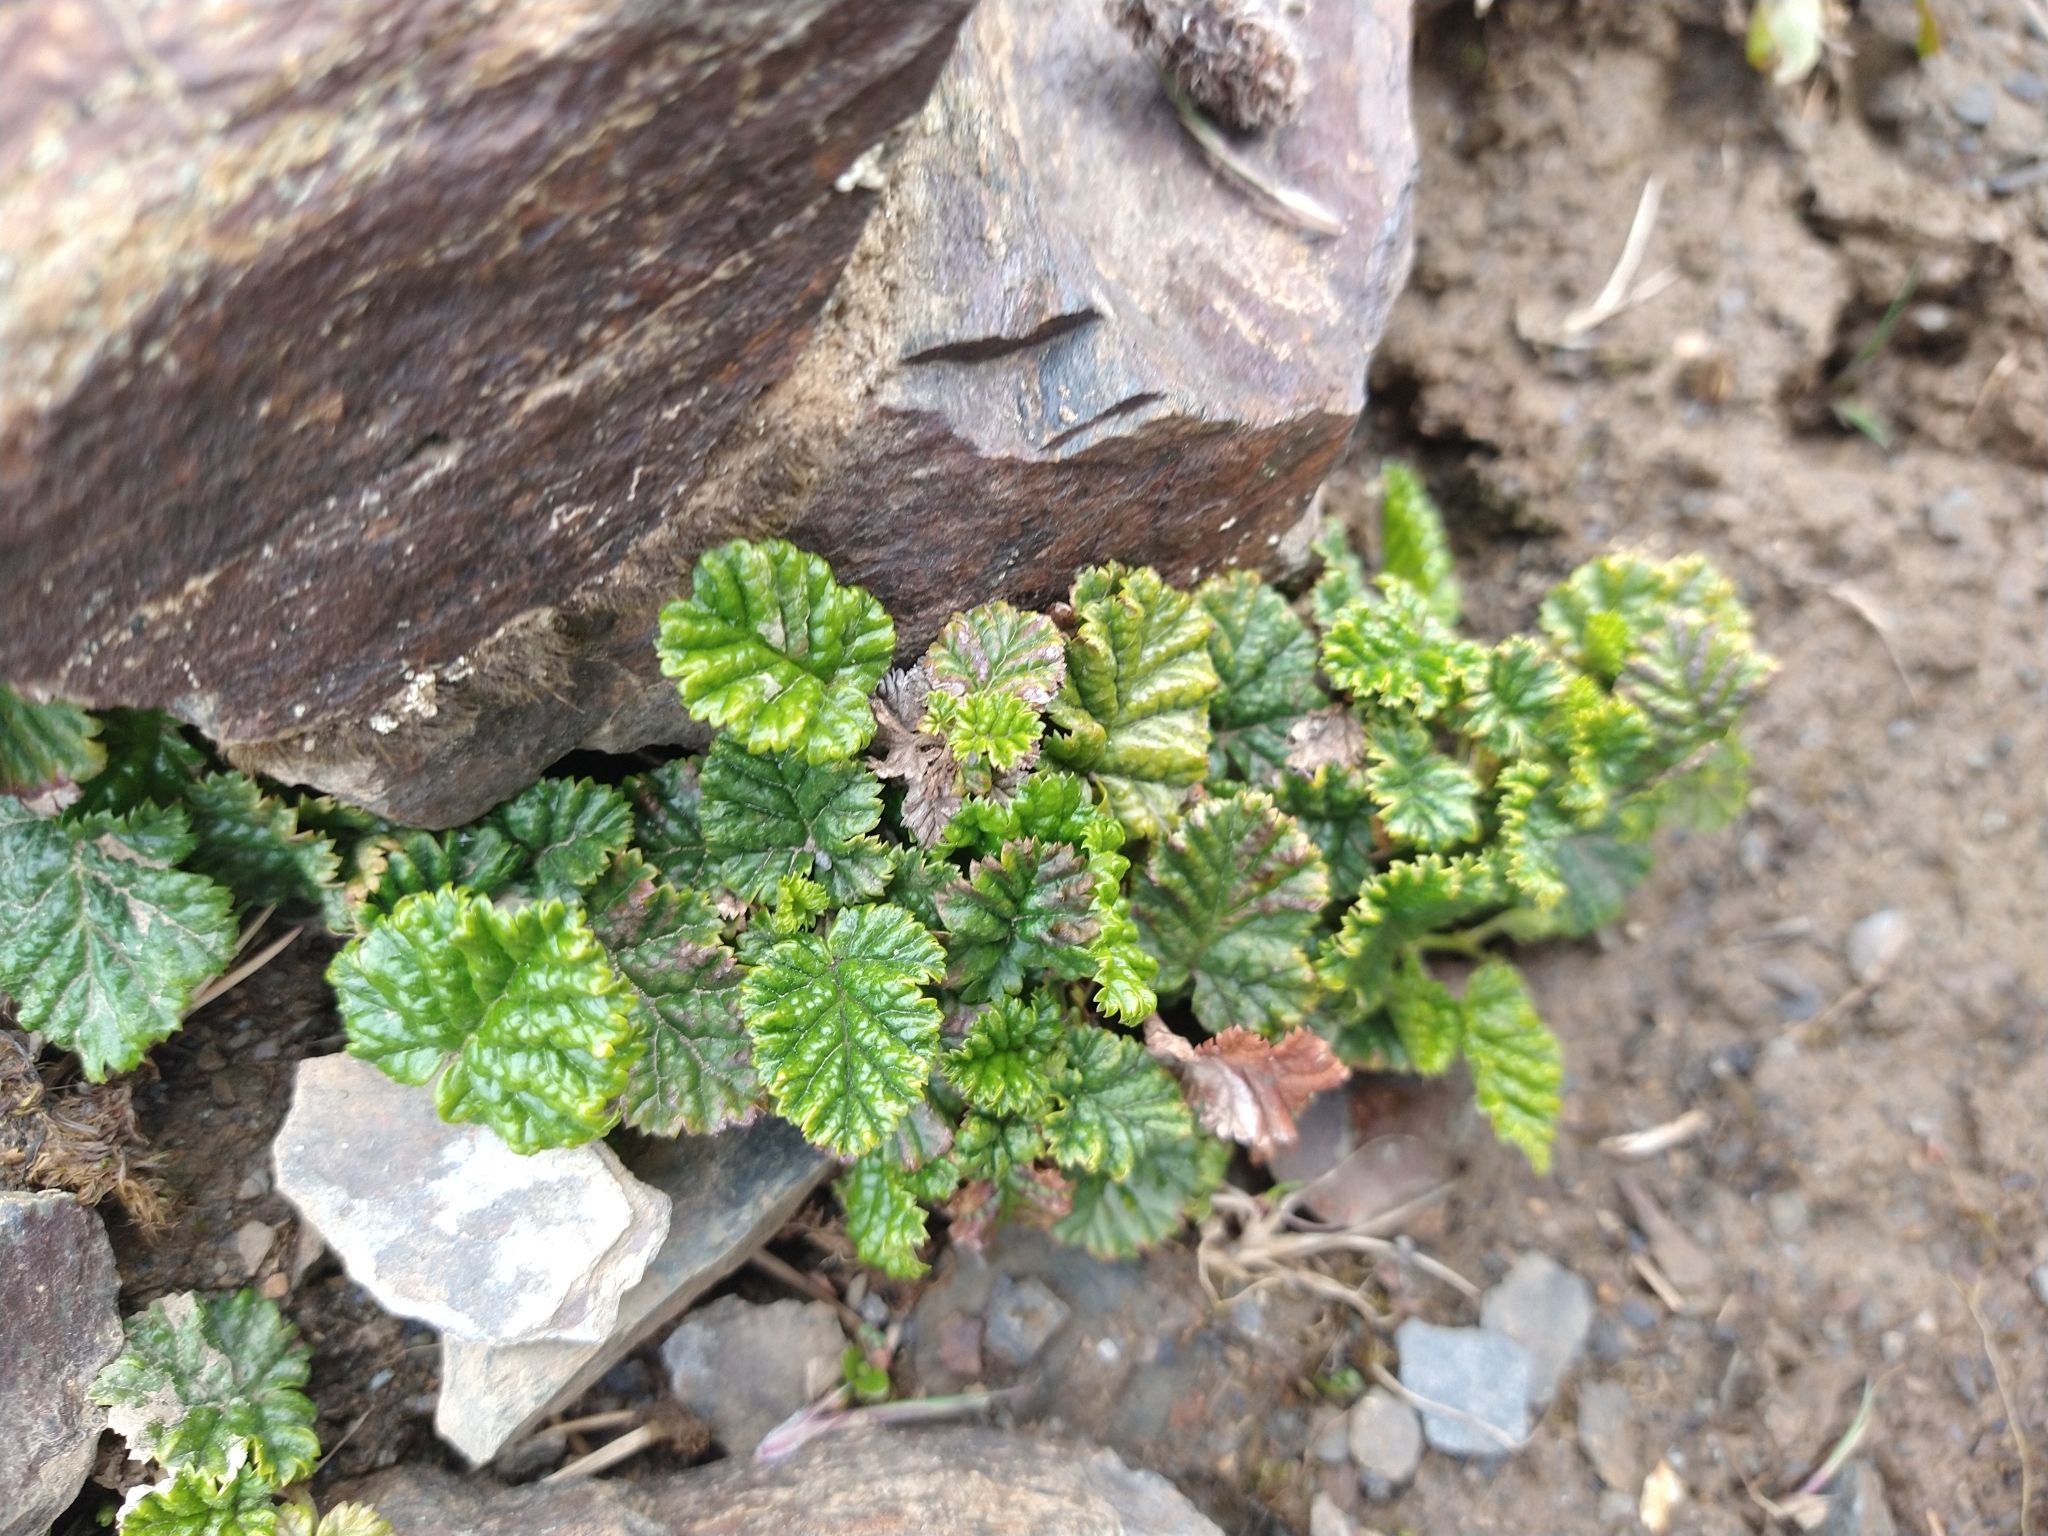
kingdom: Plantae
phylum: Tracheophyta
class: Magnoliopsida
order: Rosales
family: Rosaceae
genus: Rubus
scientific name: Rubus geoides
